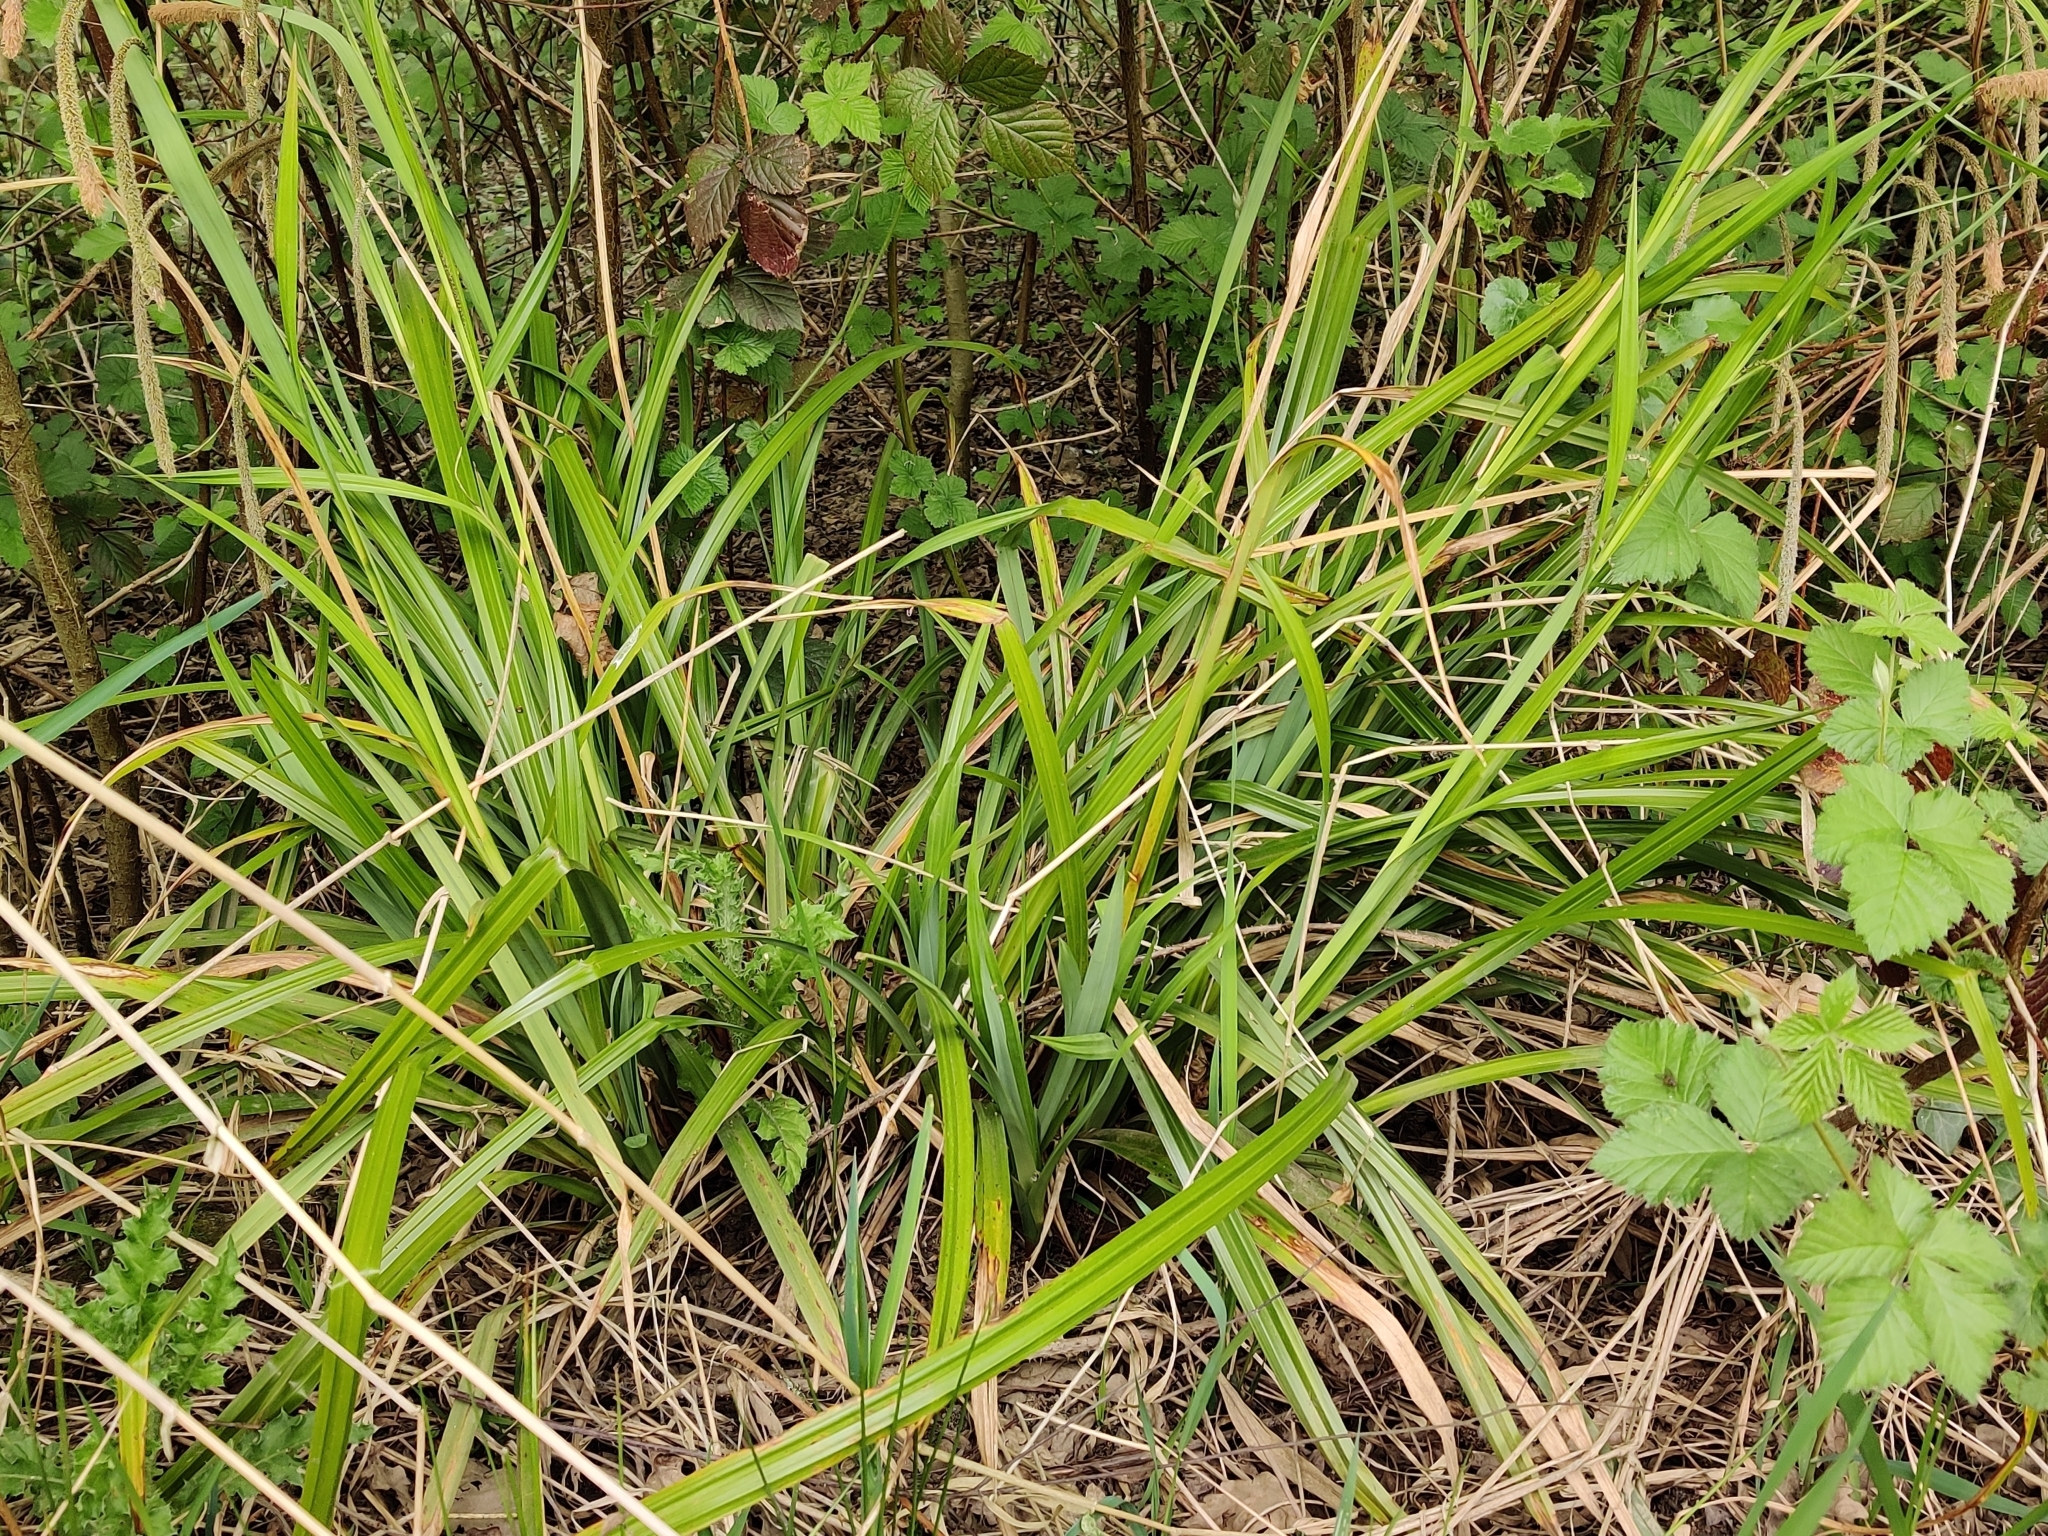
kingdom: Plantae
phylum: Tracheophyta
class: Liliopsida
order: Poales
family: Cyperaceae
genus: Carex
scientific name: Carex pendula
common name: Pendulous sedge
